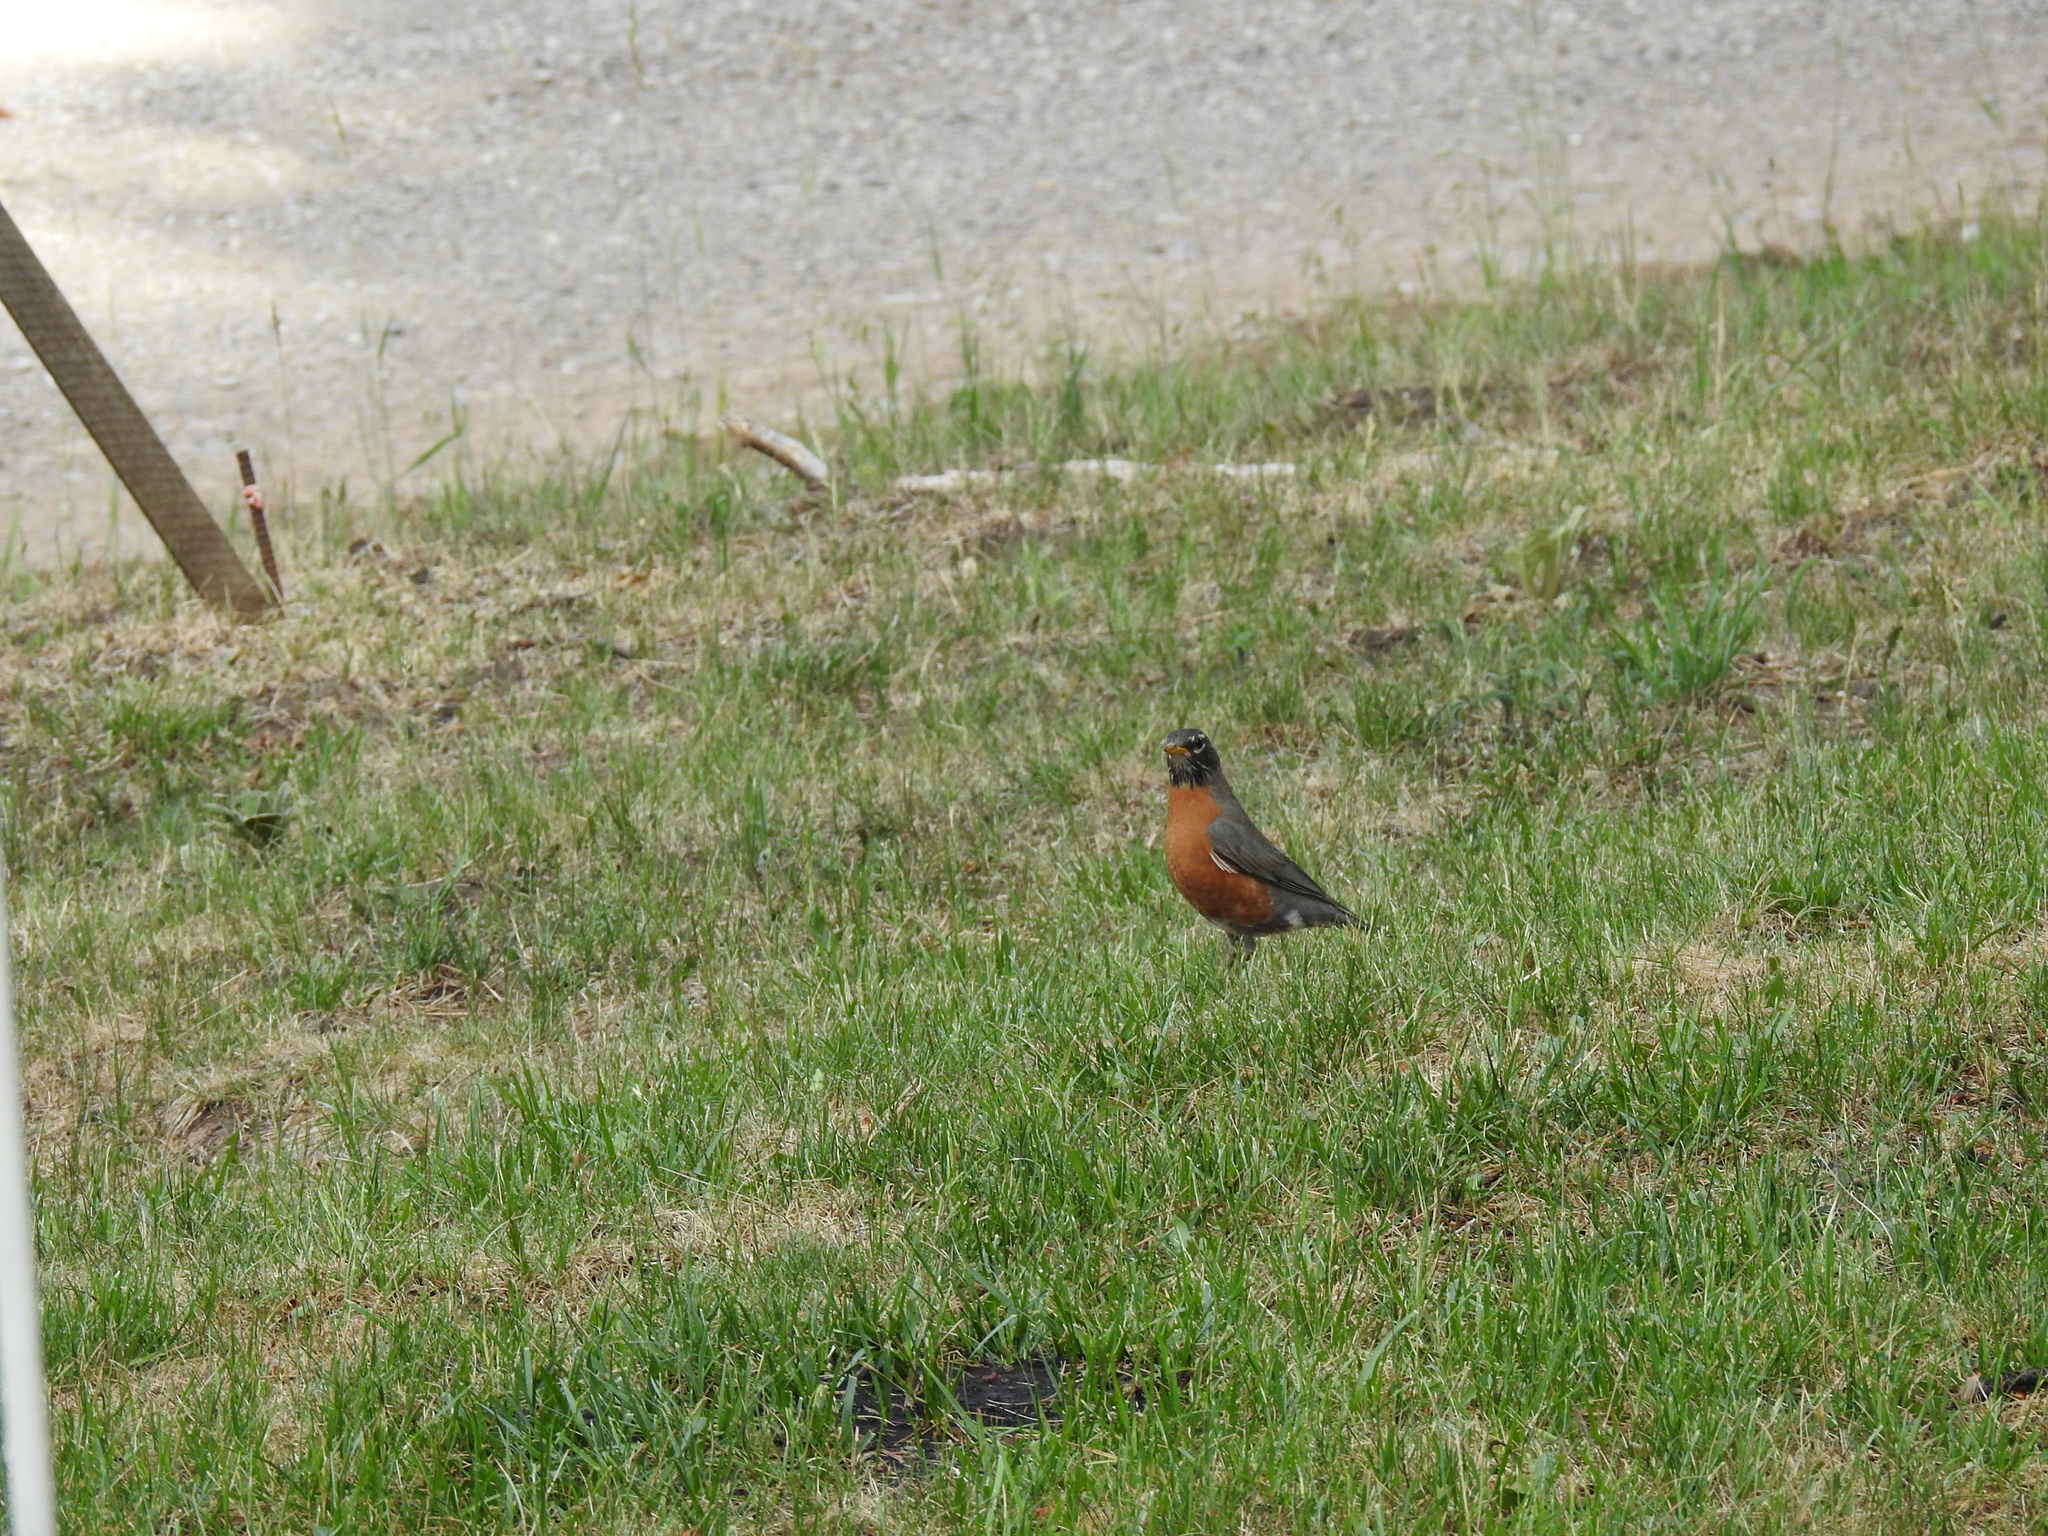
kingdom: Animalia
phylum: Chordata
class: Aves
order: Passeriformes
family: Turdidae
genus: Turdus
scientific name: Turdus migratorius
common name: American robin
